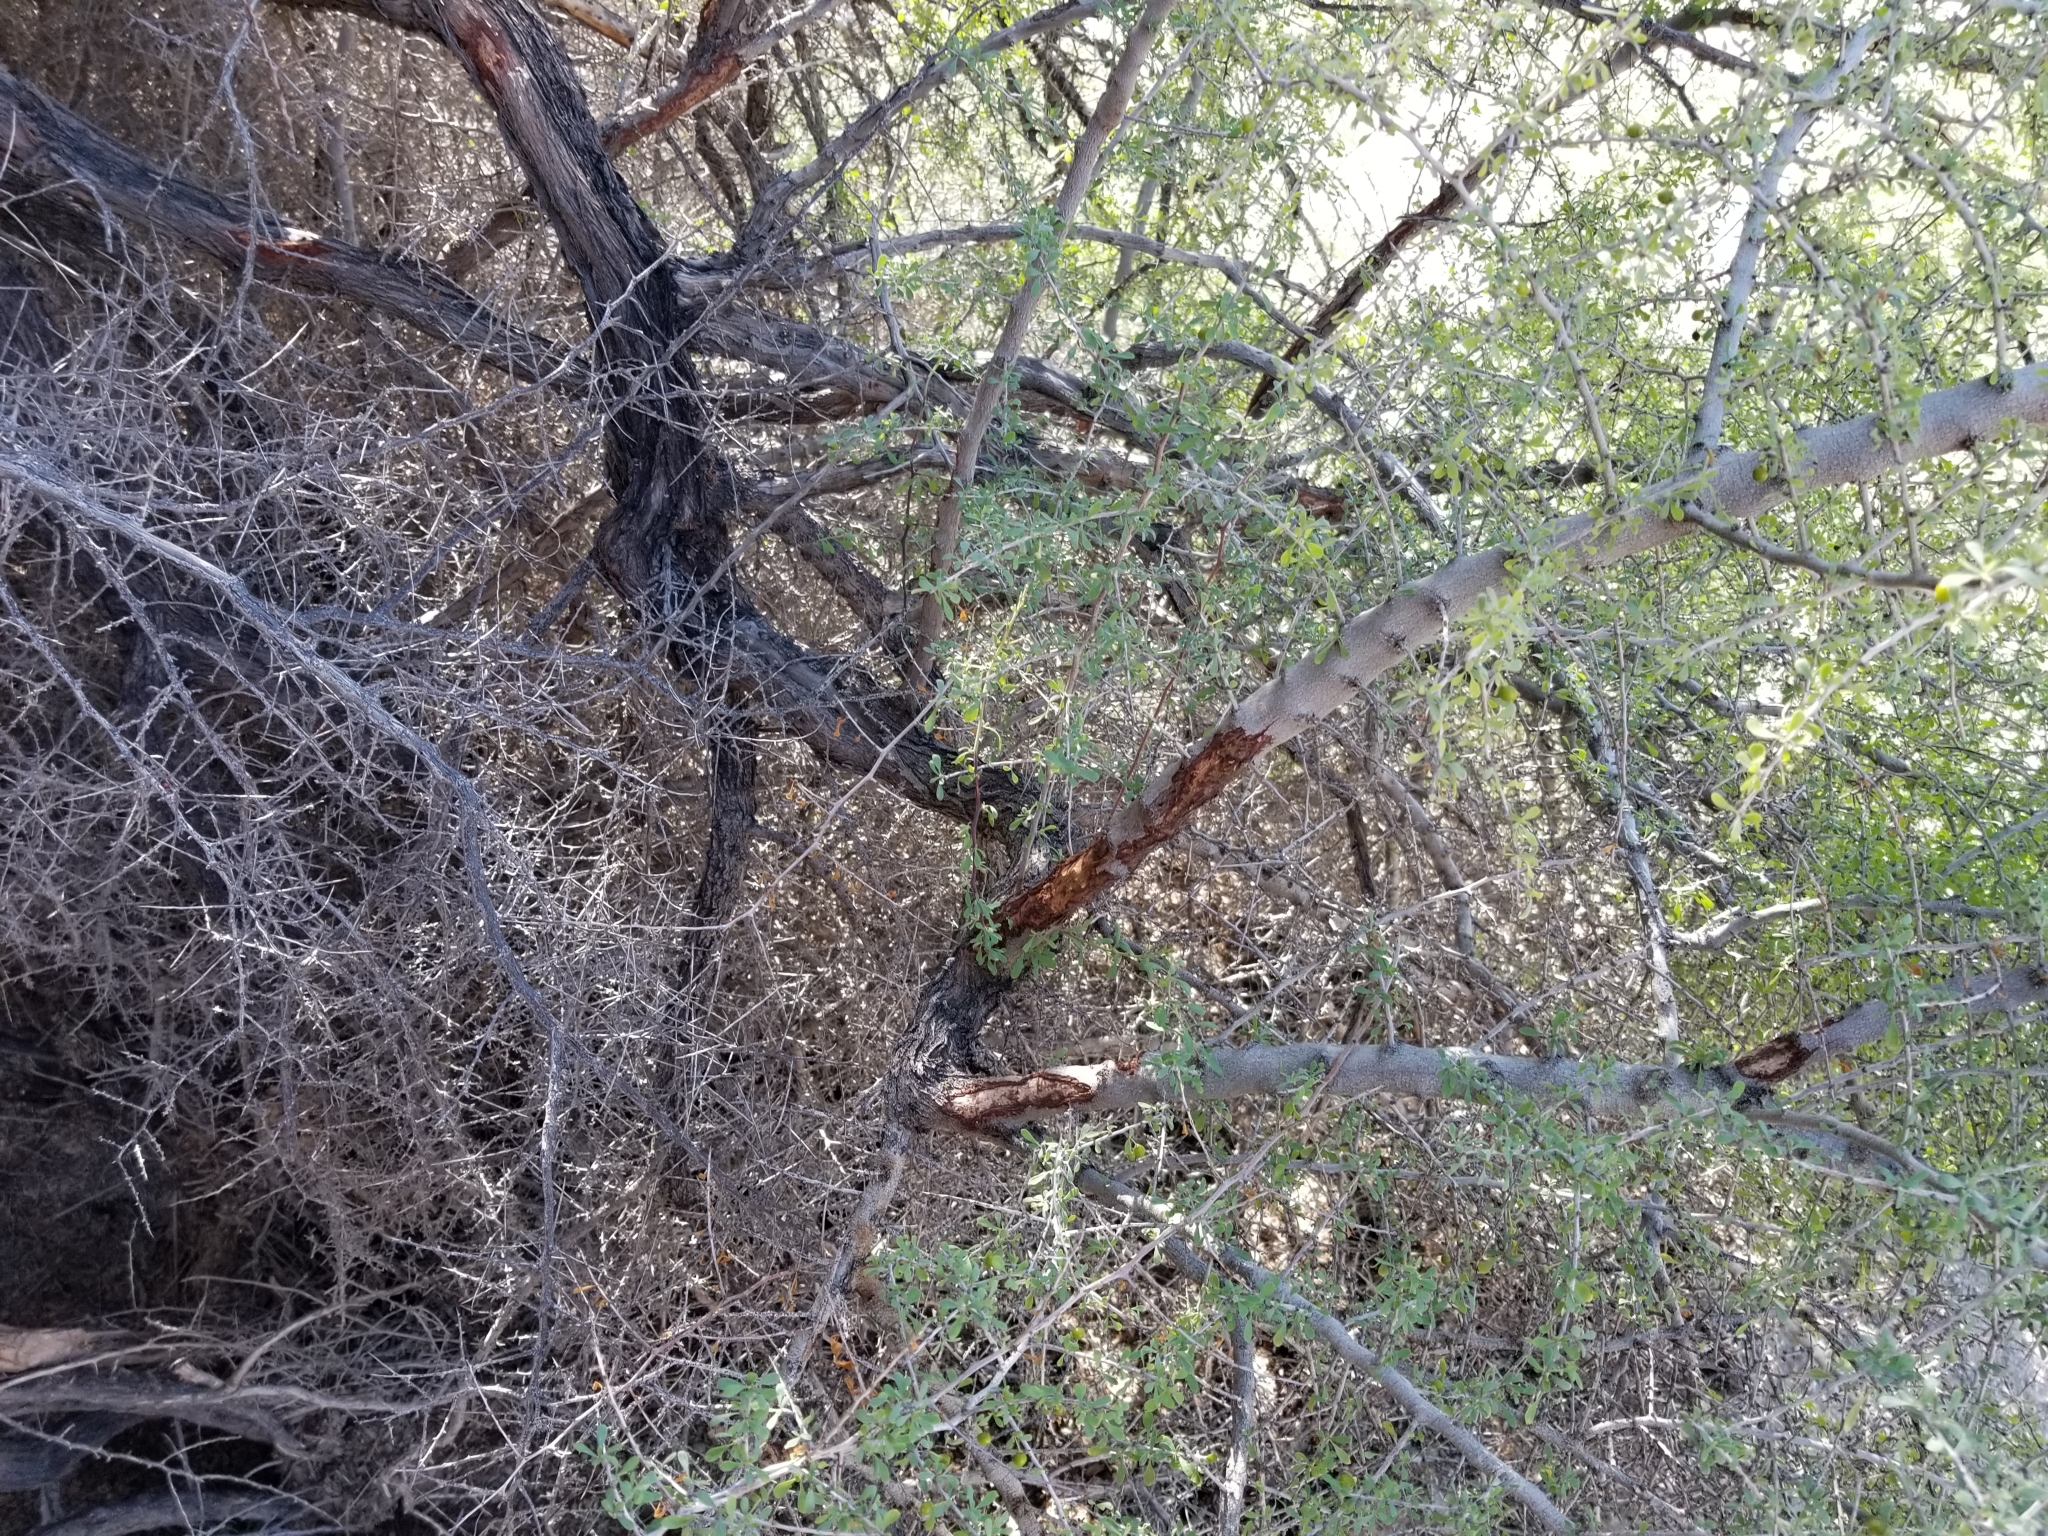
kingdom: Plantae
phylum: Tracheophyta
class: Magnoliopsida
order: Rosales
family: Rhamnaceae
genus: Condalia
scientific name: Condalia globosa
